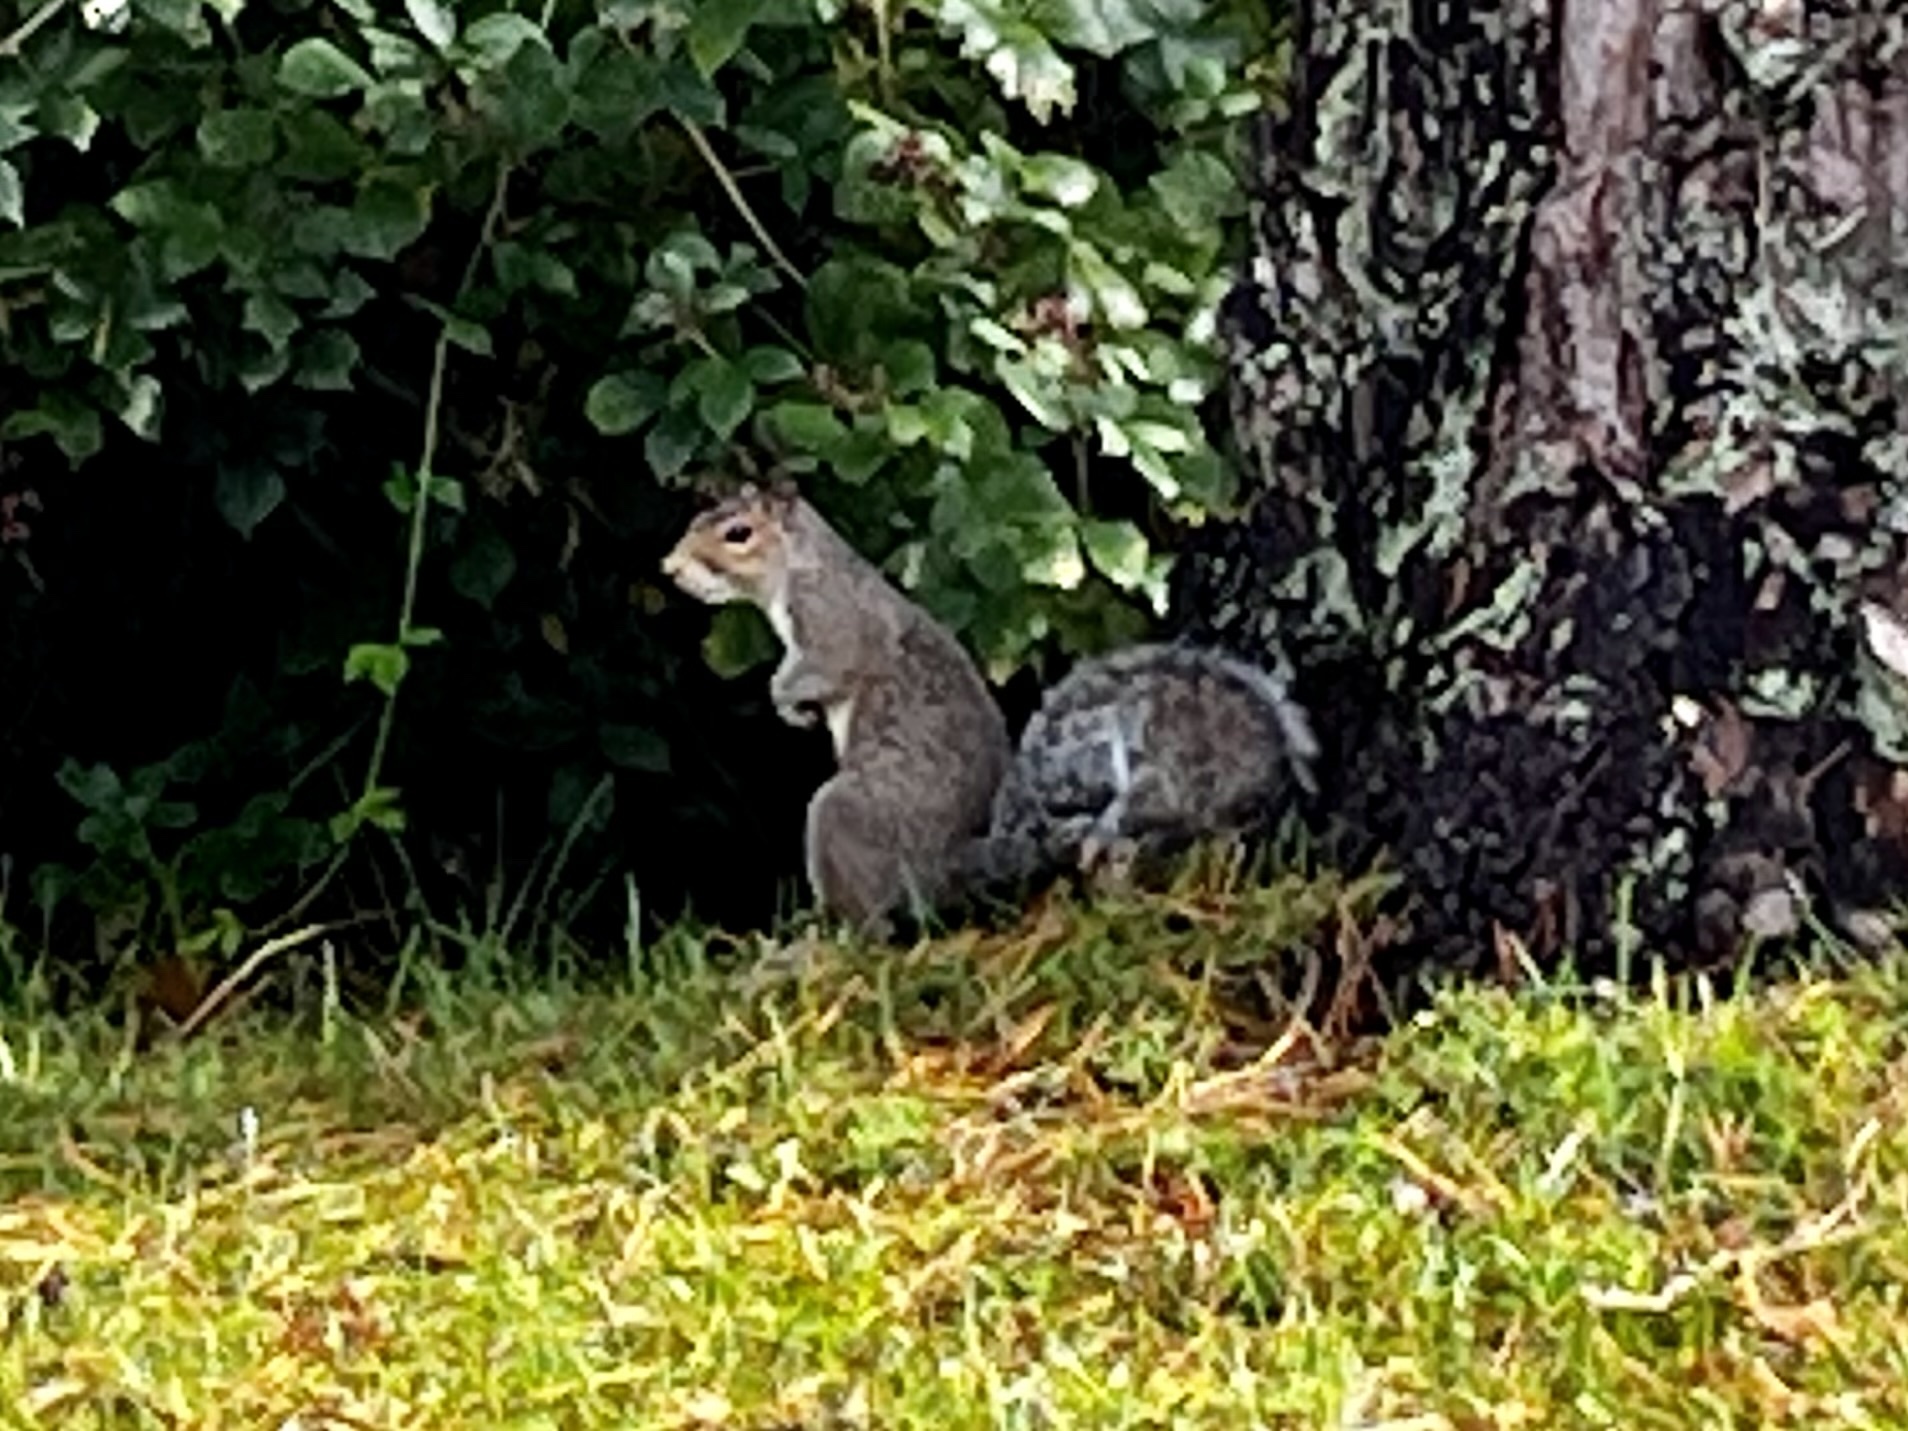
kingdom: Animalia
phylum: Chordata
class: Mammalia
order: Rodentia
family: Sciuridae
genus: Sciurus
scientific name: Sciurus carolinensis
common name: Eastern gray squirrel
